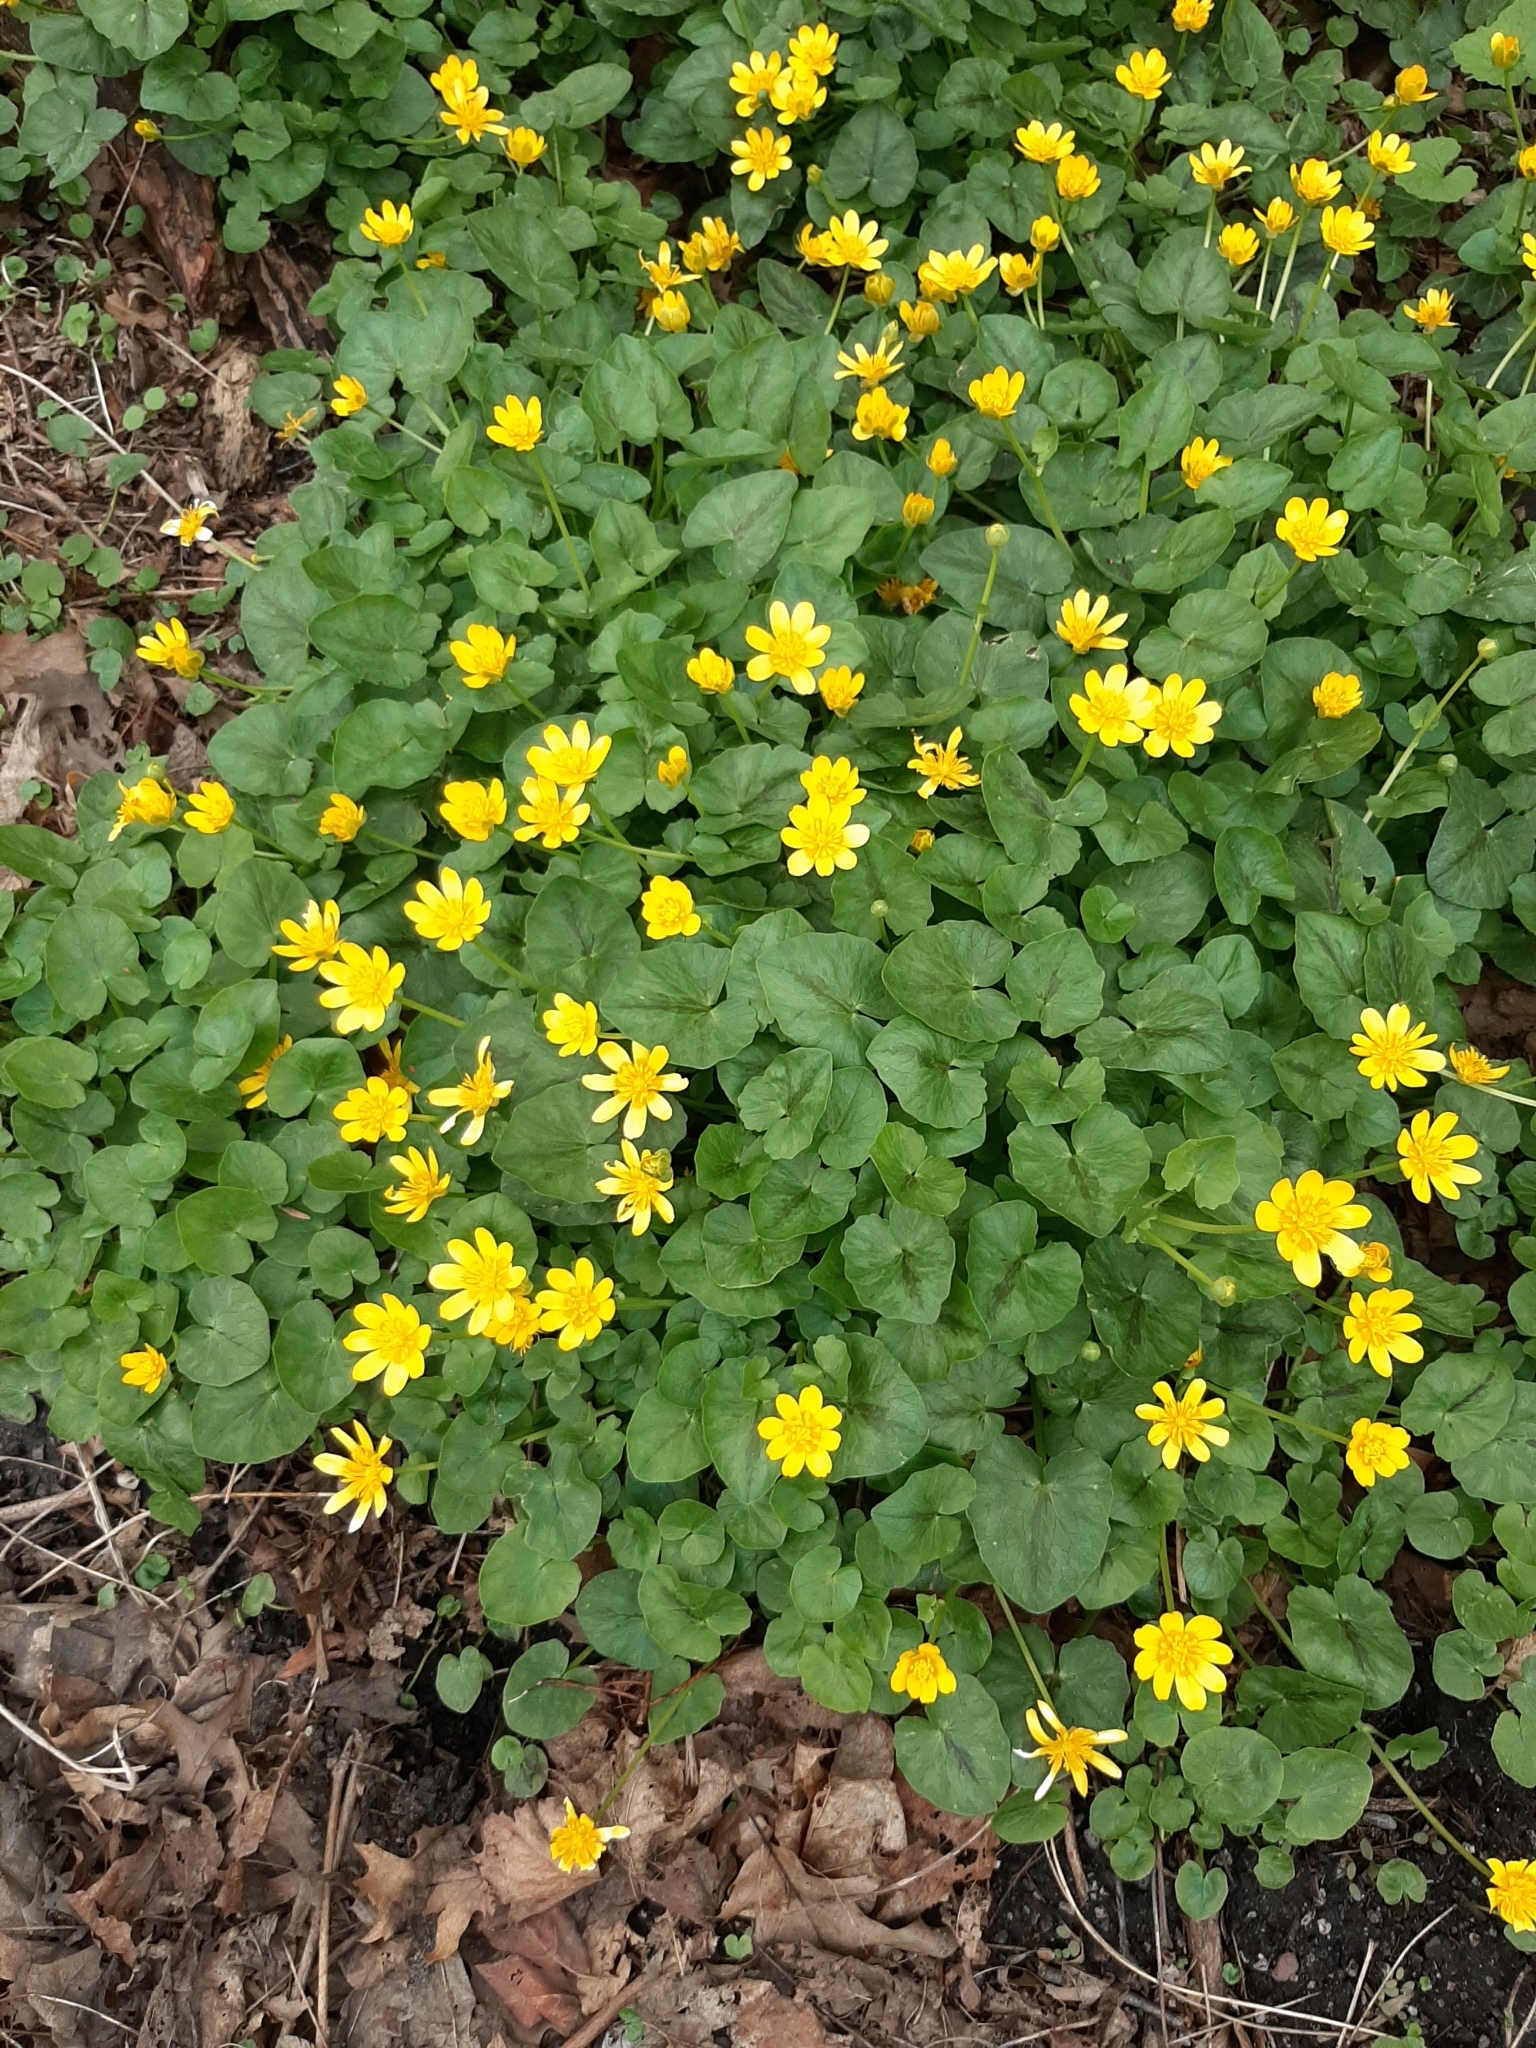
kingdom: Plantae
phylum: Tracheophyta
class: Magnoliopsida
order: Ranunculales
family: Ranunculaceae
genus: Ficaria
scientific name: Ficaria verna
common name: Lesser celandine
